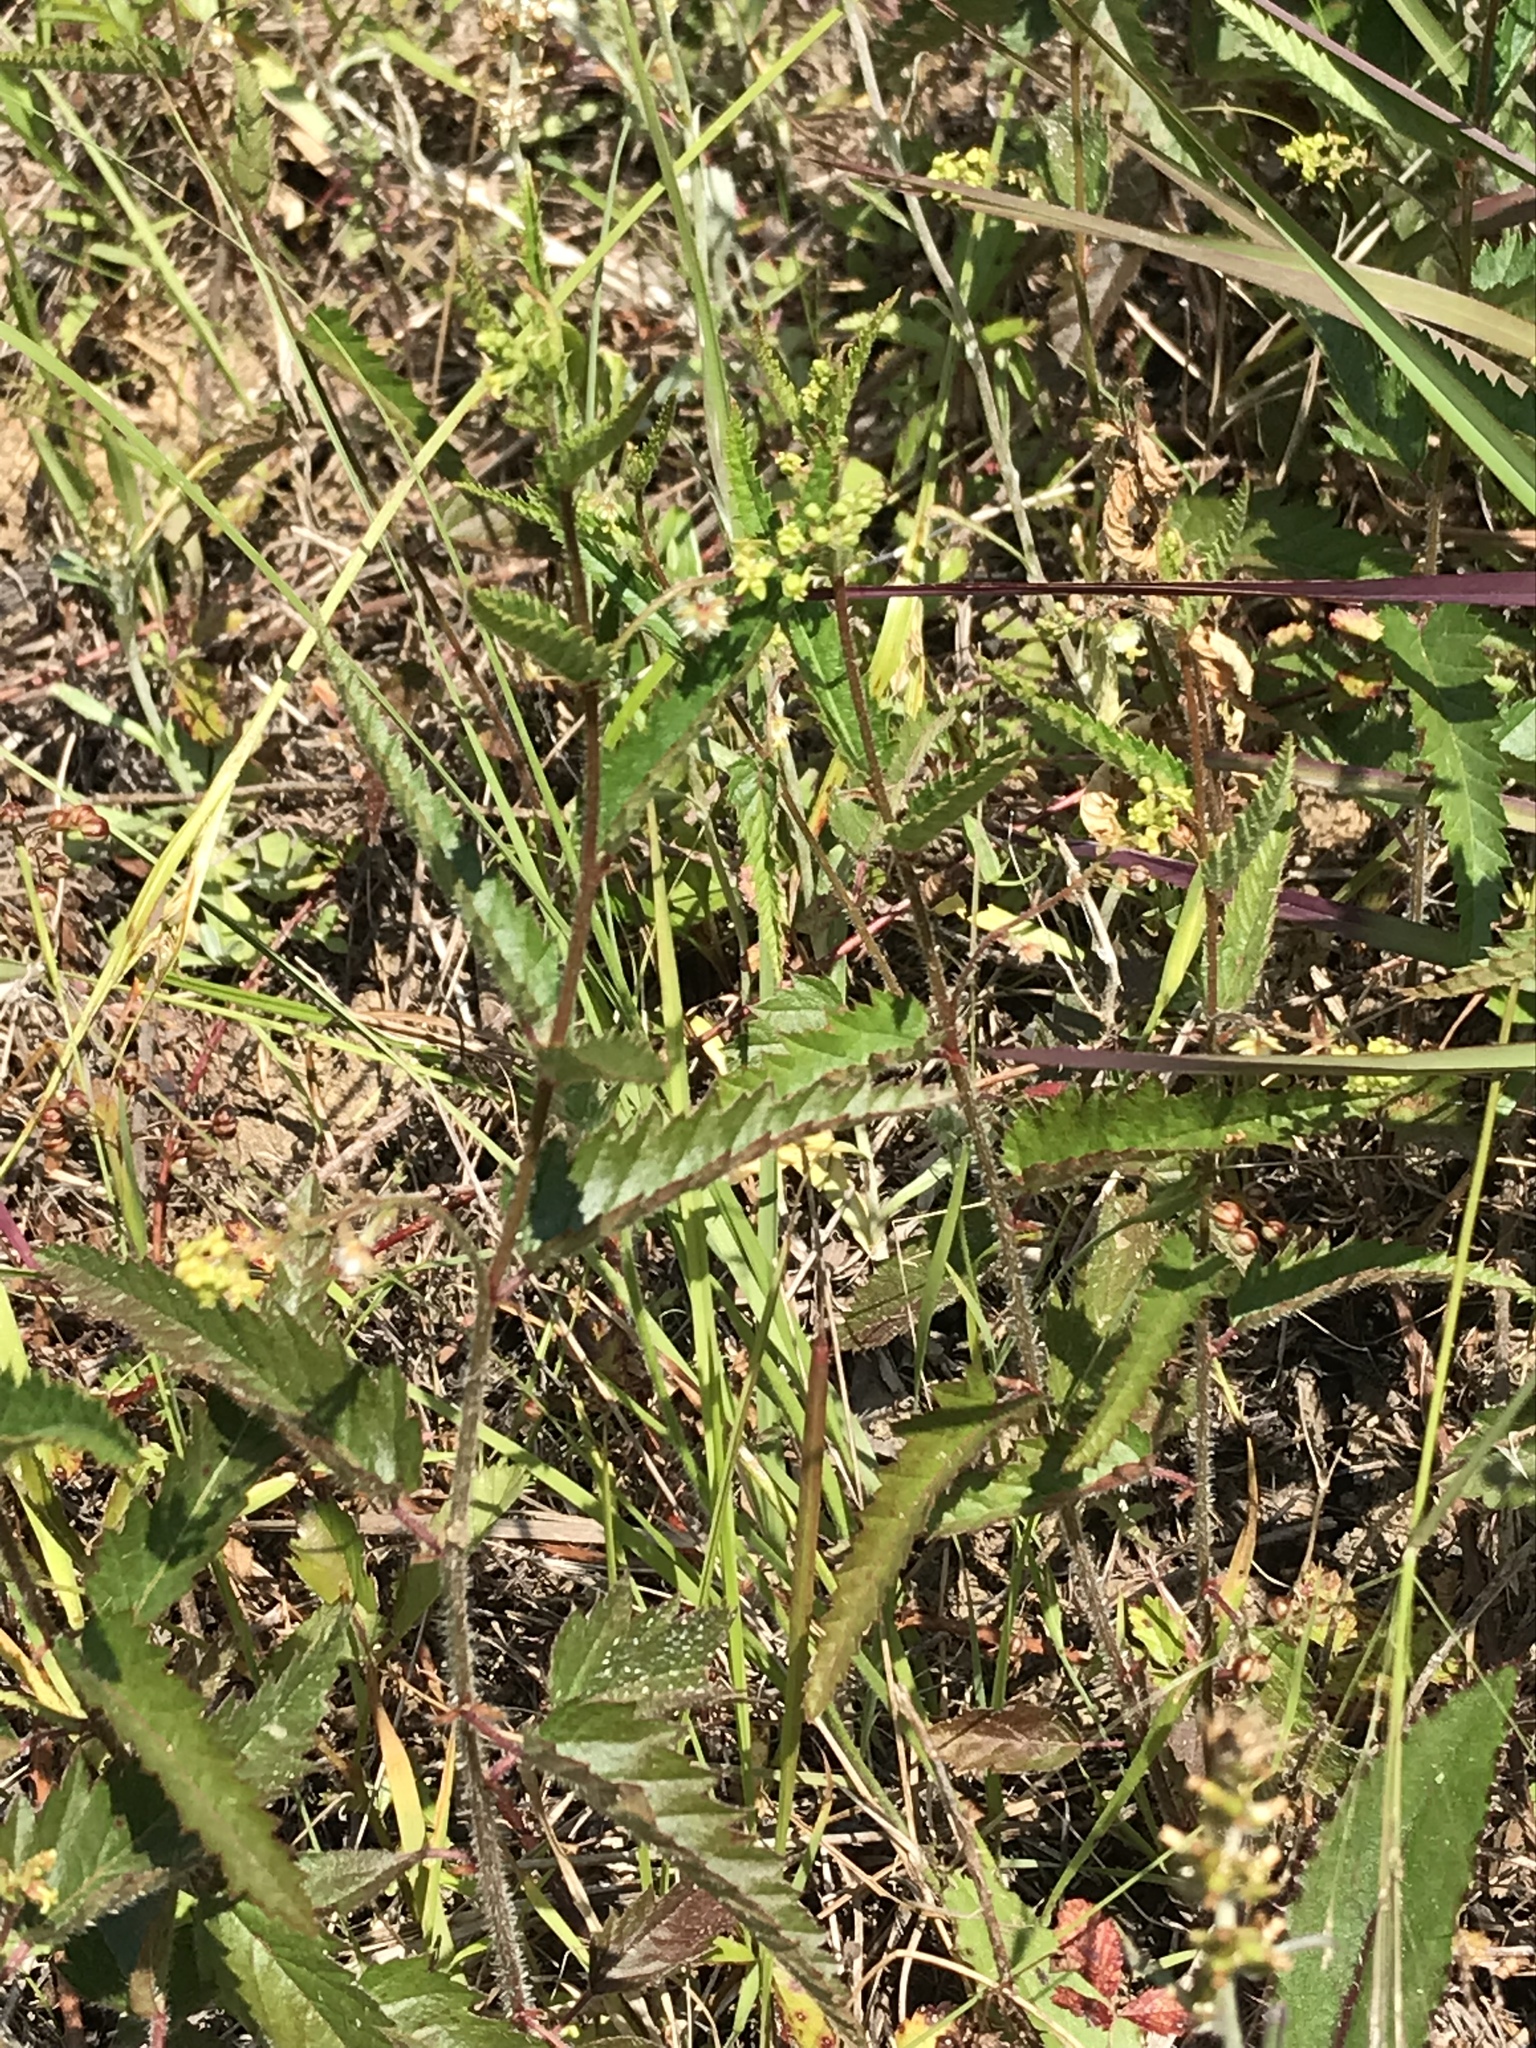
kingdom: Plantae
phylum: Tracheophyta
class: Magnoliopsida
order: Malpighiales
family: Euphorbiaceae
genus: Tragia
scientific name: Tragia urticifolia
